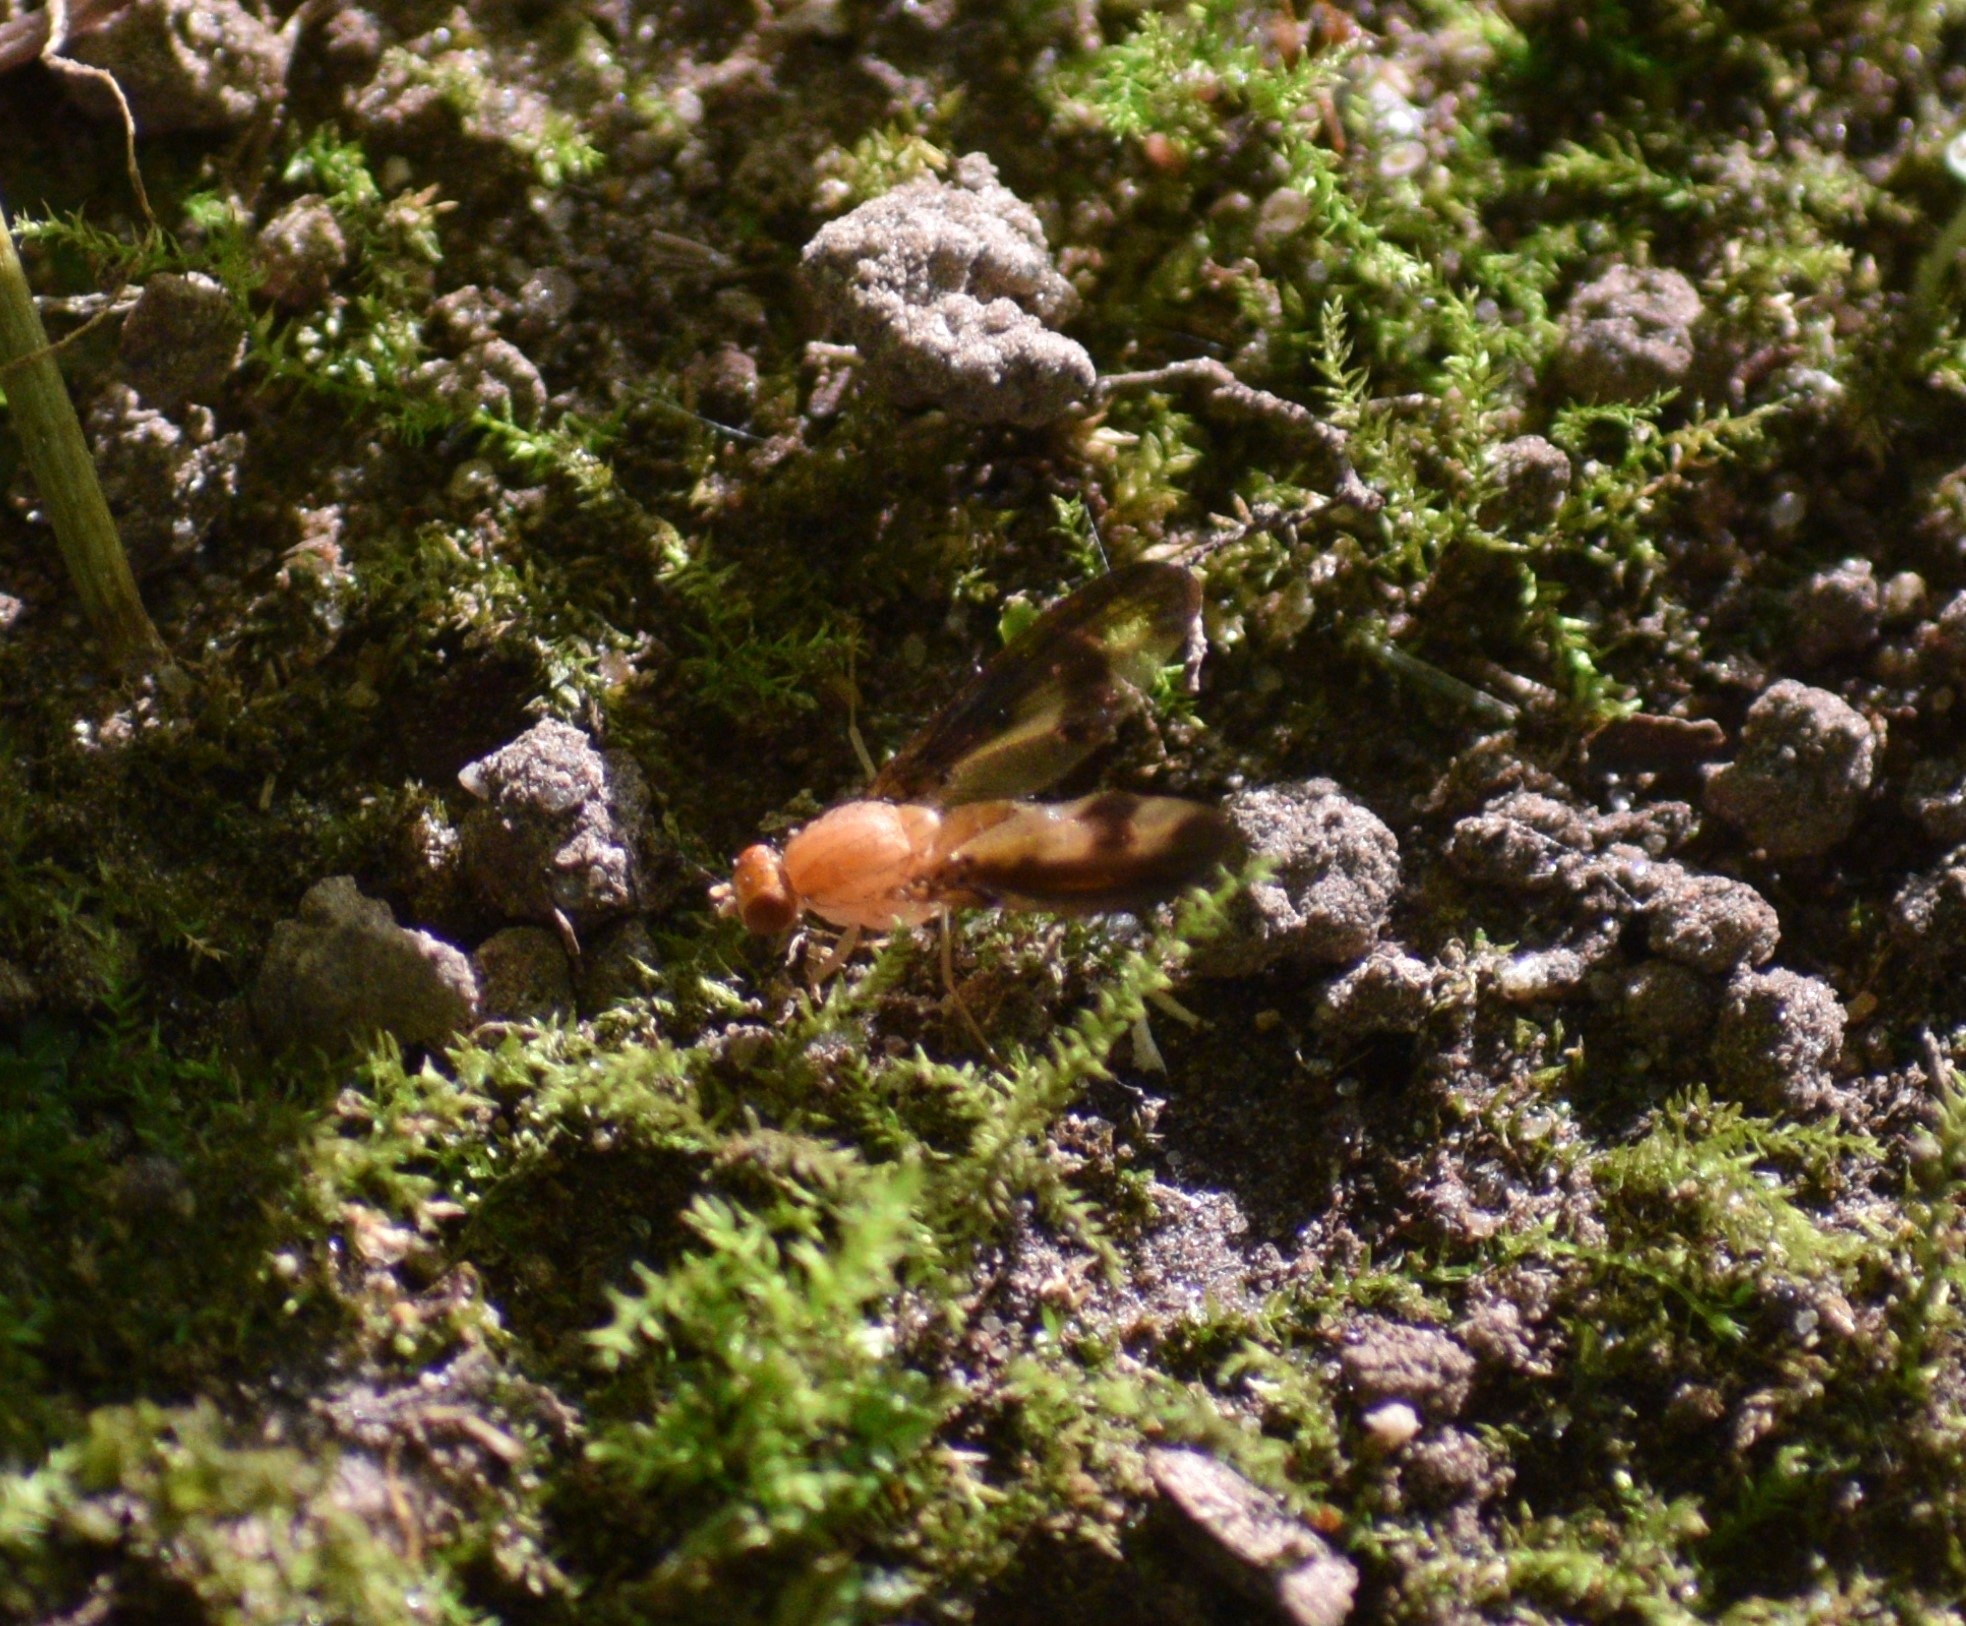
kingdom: Animalia
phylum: Arthropoda
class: Insecta
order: Diptera
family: Pallopteridae
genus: Toxonevra
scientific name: Toxonevra superba
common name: Antlered flutter fly
